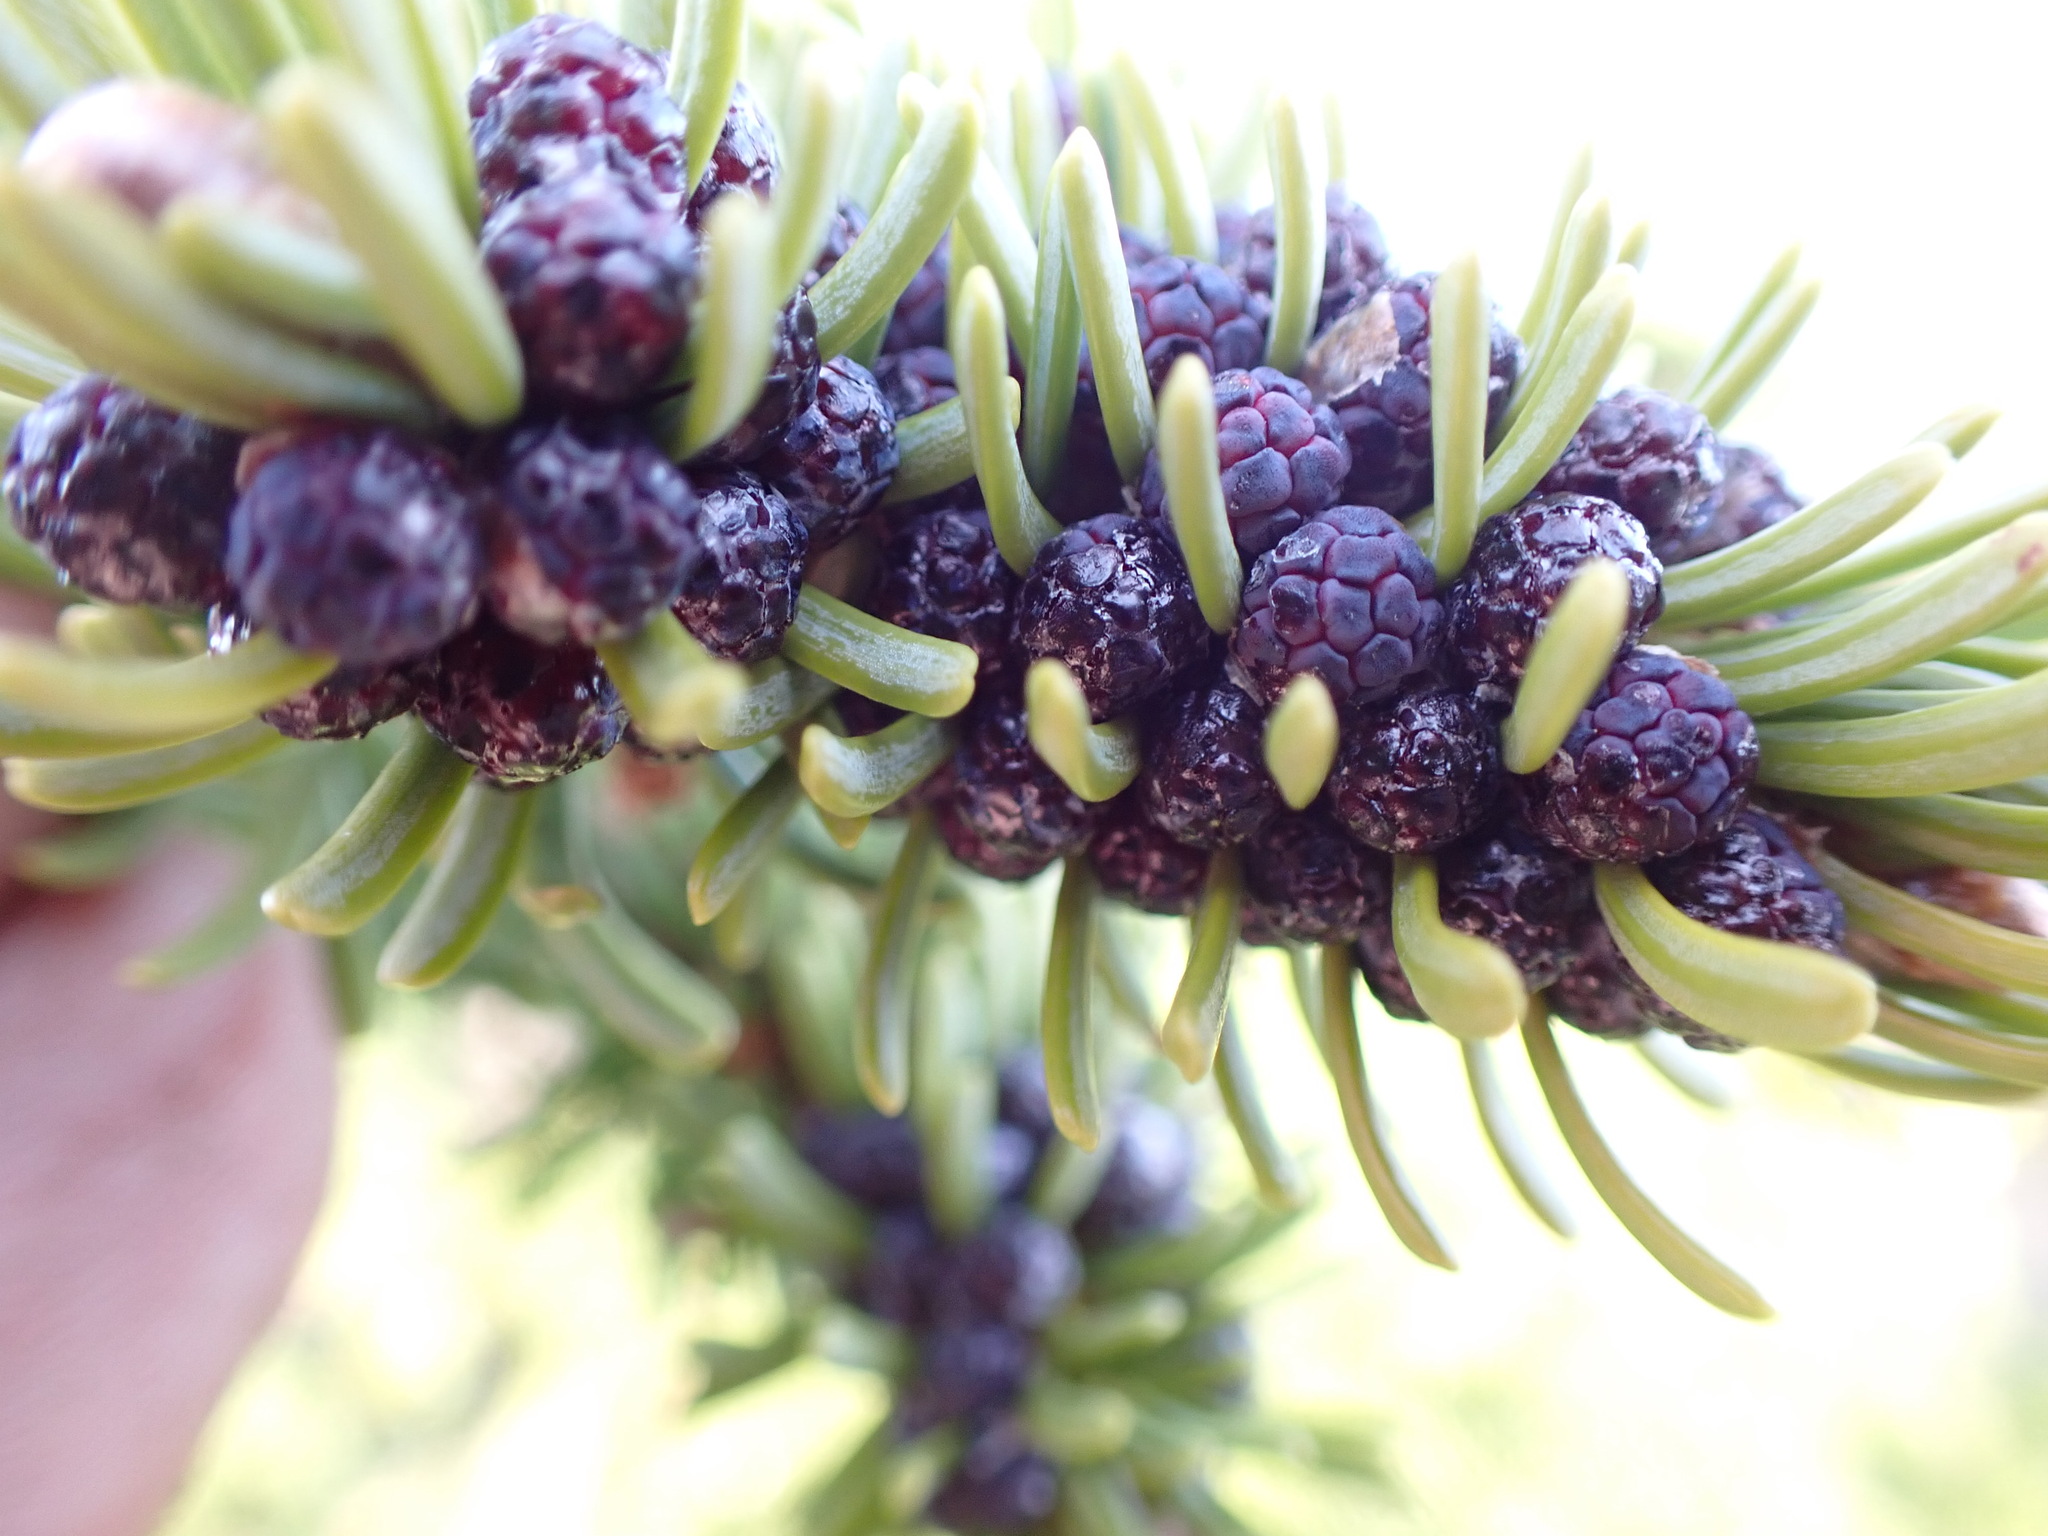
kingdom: Plantae
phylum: Tracheophyta
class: Pinopsida
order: Pinales
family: Pinaceae
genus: Abies
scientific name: Abies lasiocarpa
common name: Subalpine fir
